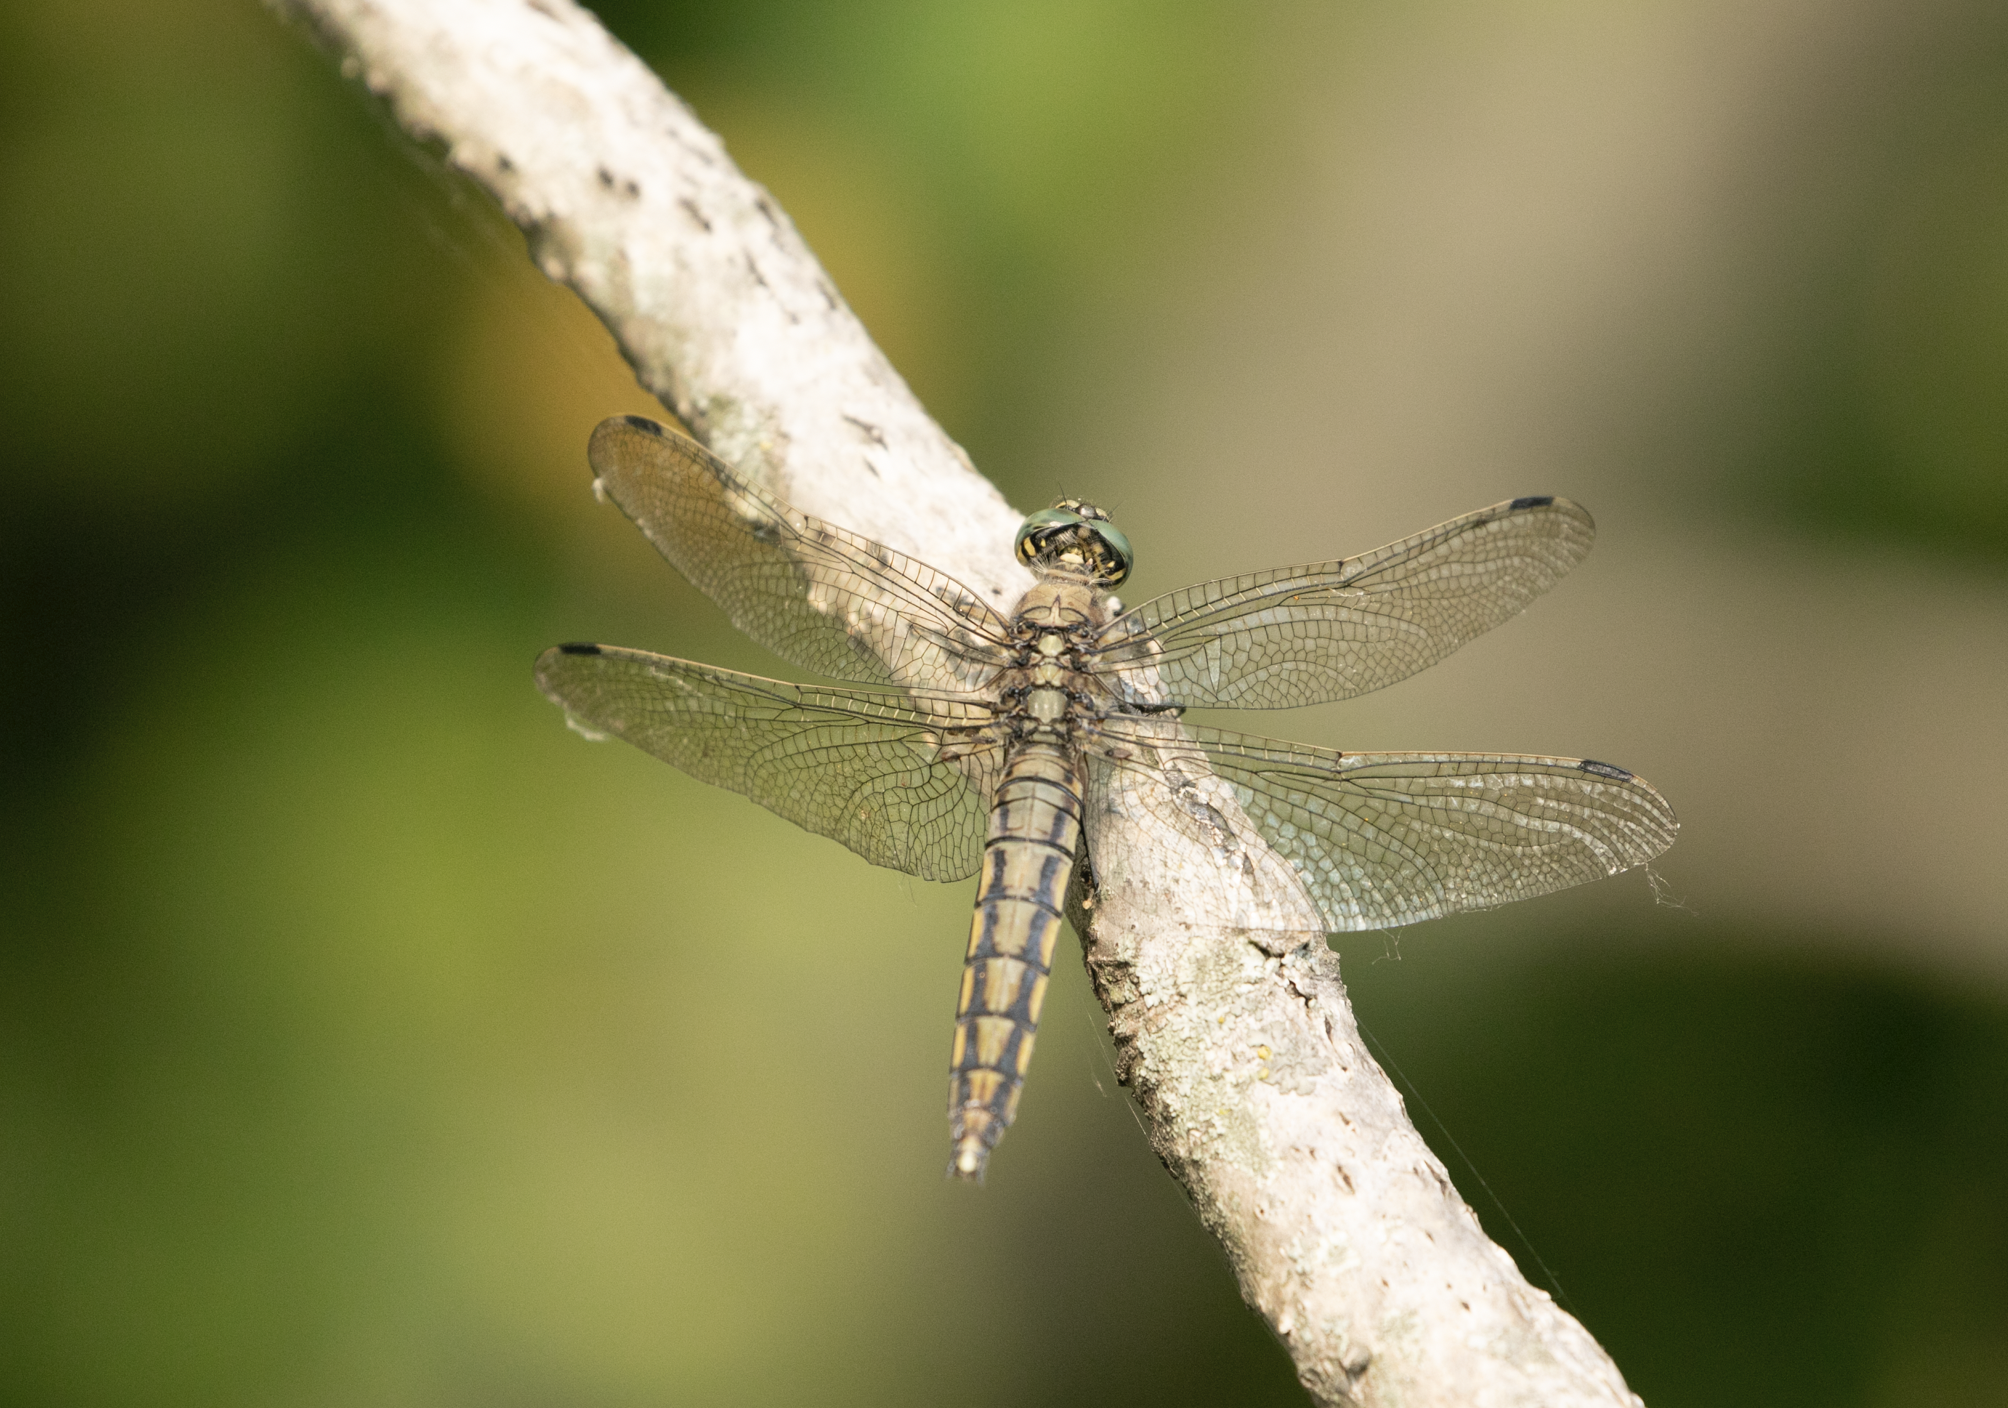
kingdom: Animalia
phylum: Arthropoda
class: Insecta
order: Odonata
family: Libellulidae
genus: Orthetrum
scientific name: Orthetrum cancellatum
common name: Black-tailed skimmer
